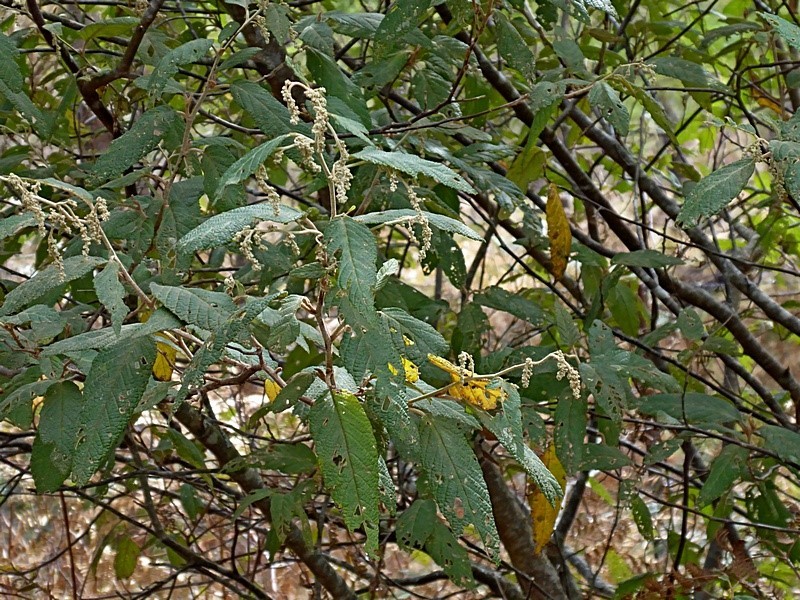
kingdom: Plantae
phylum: Tracheophyta
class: Magnoliopsida
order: Rosales
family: Rhamnaceae
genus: Pomaderris
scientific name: Pomaderris aspera
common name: Hazel pomaderris
